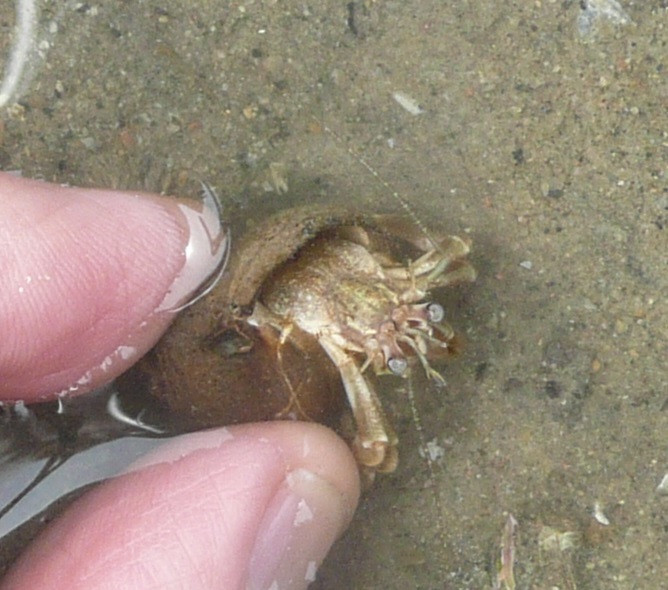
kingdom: Animalia
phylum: Arthropoda
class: Malacostraca
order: Decapoda
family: Paguridae
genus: Pagurus
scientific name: Pagurus longicarpus
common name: Long-armed hermit crab
